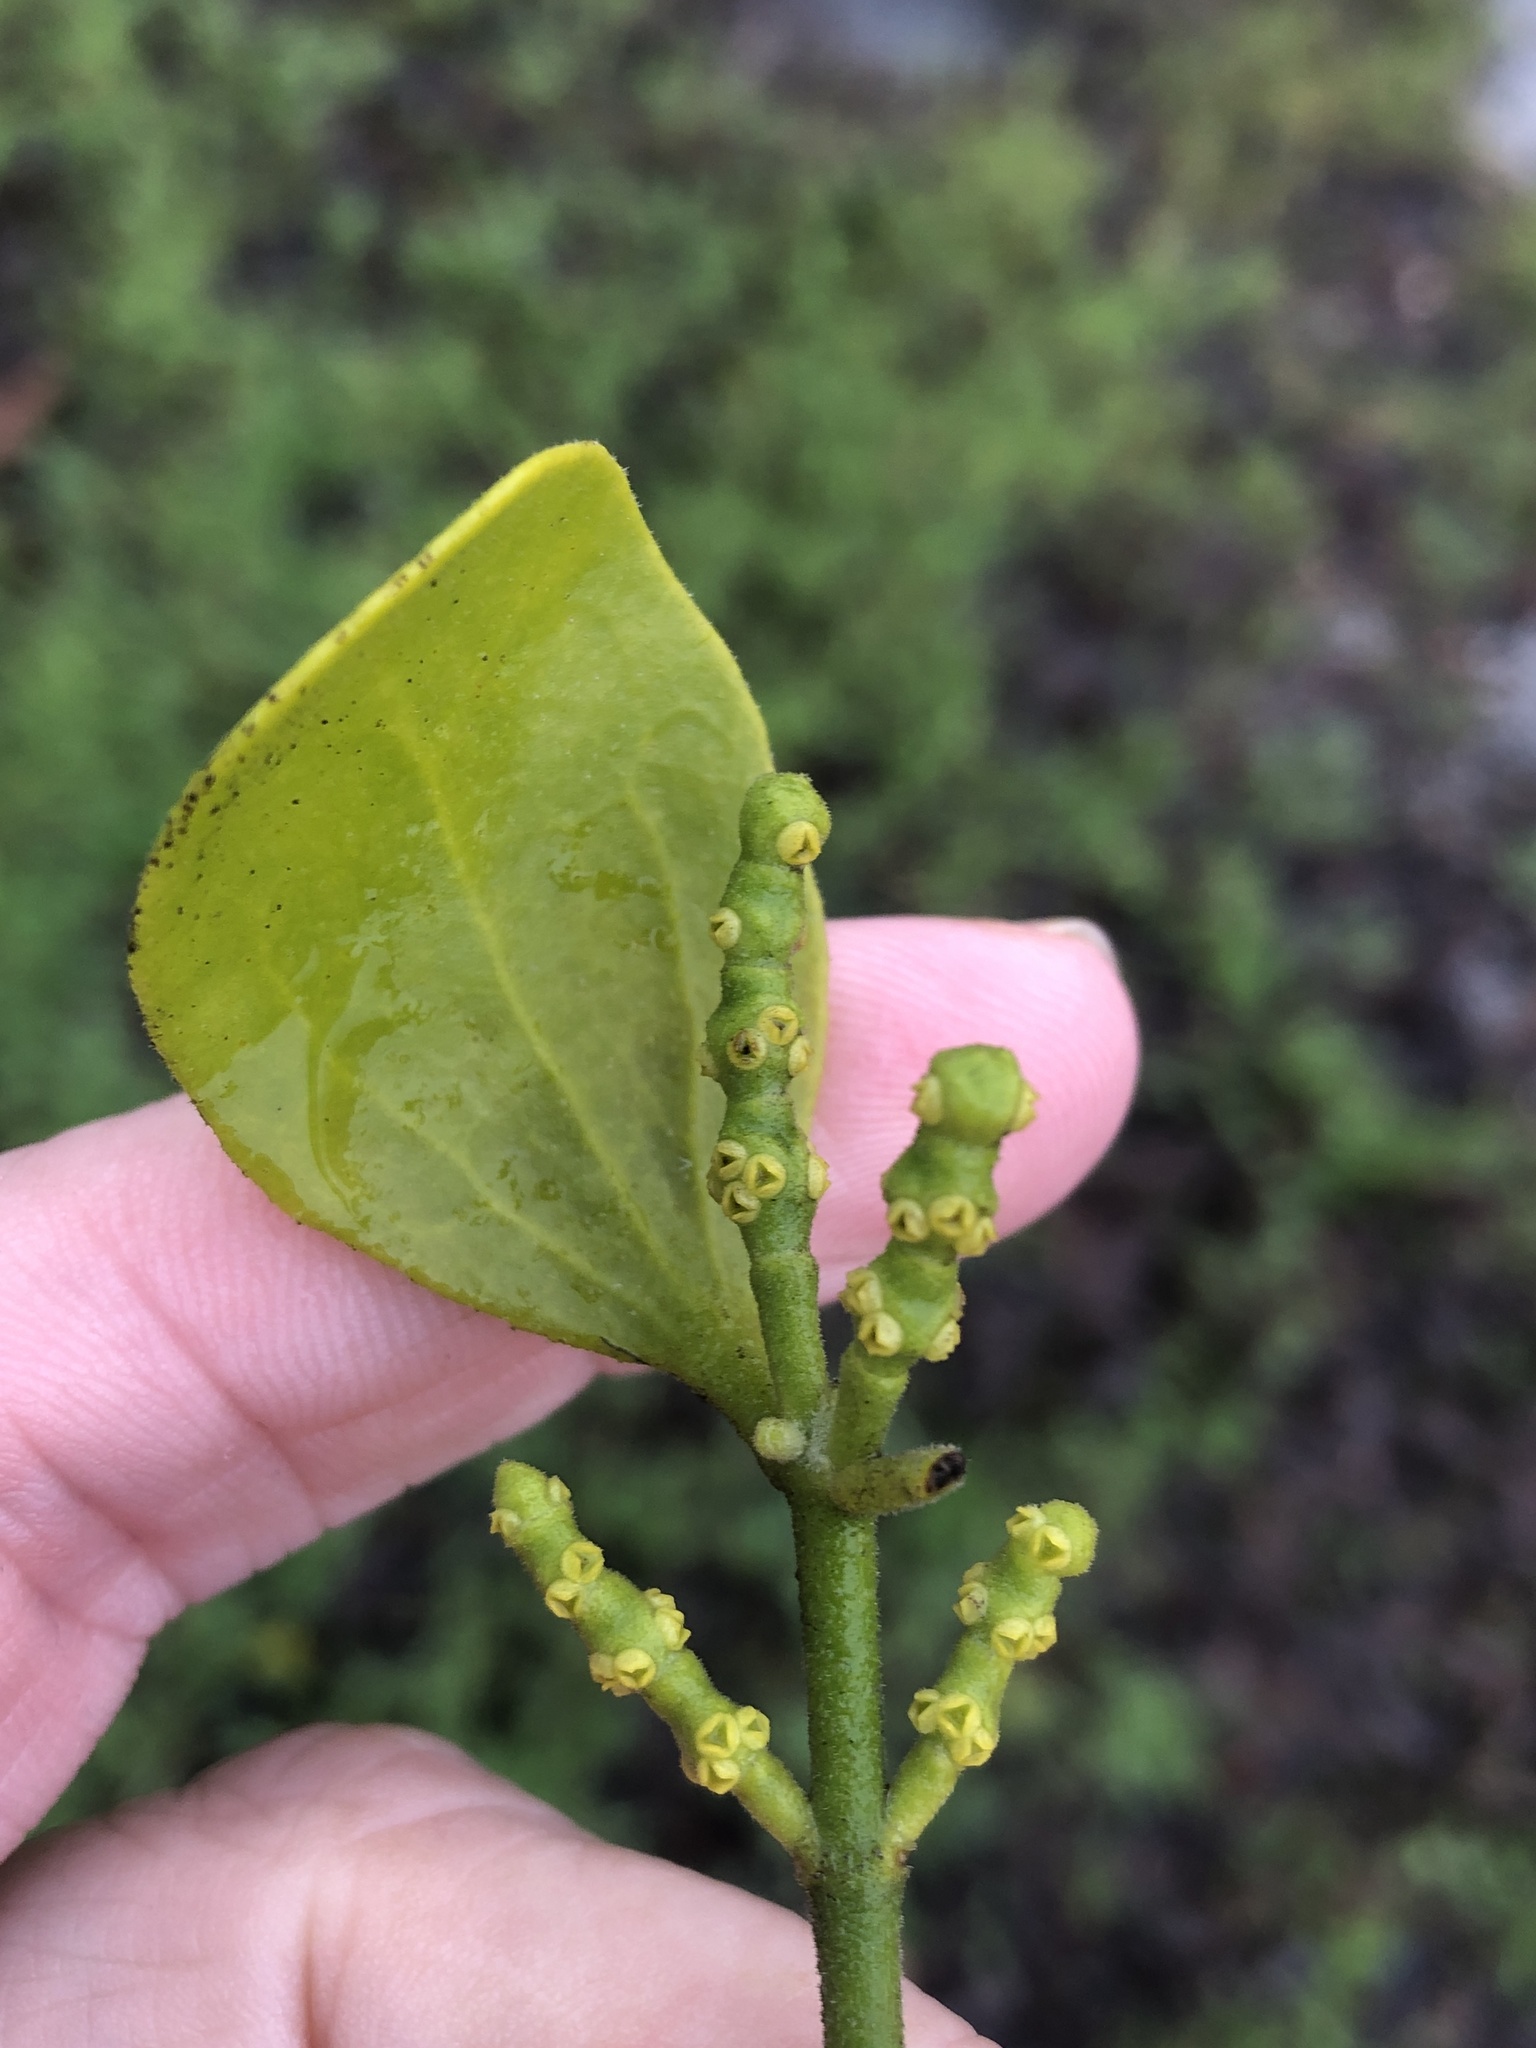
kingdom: Plantae
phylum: Tracheophyta
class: Magnoliopsida
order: Santalales
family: Viscaceae
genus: Phoradendron
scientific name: Phoradendron leucarpum
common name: Pacific mistletoe
